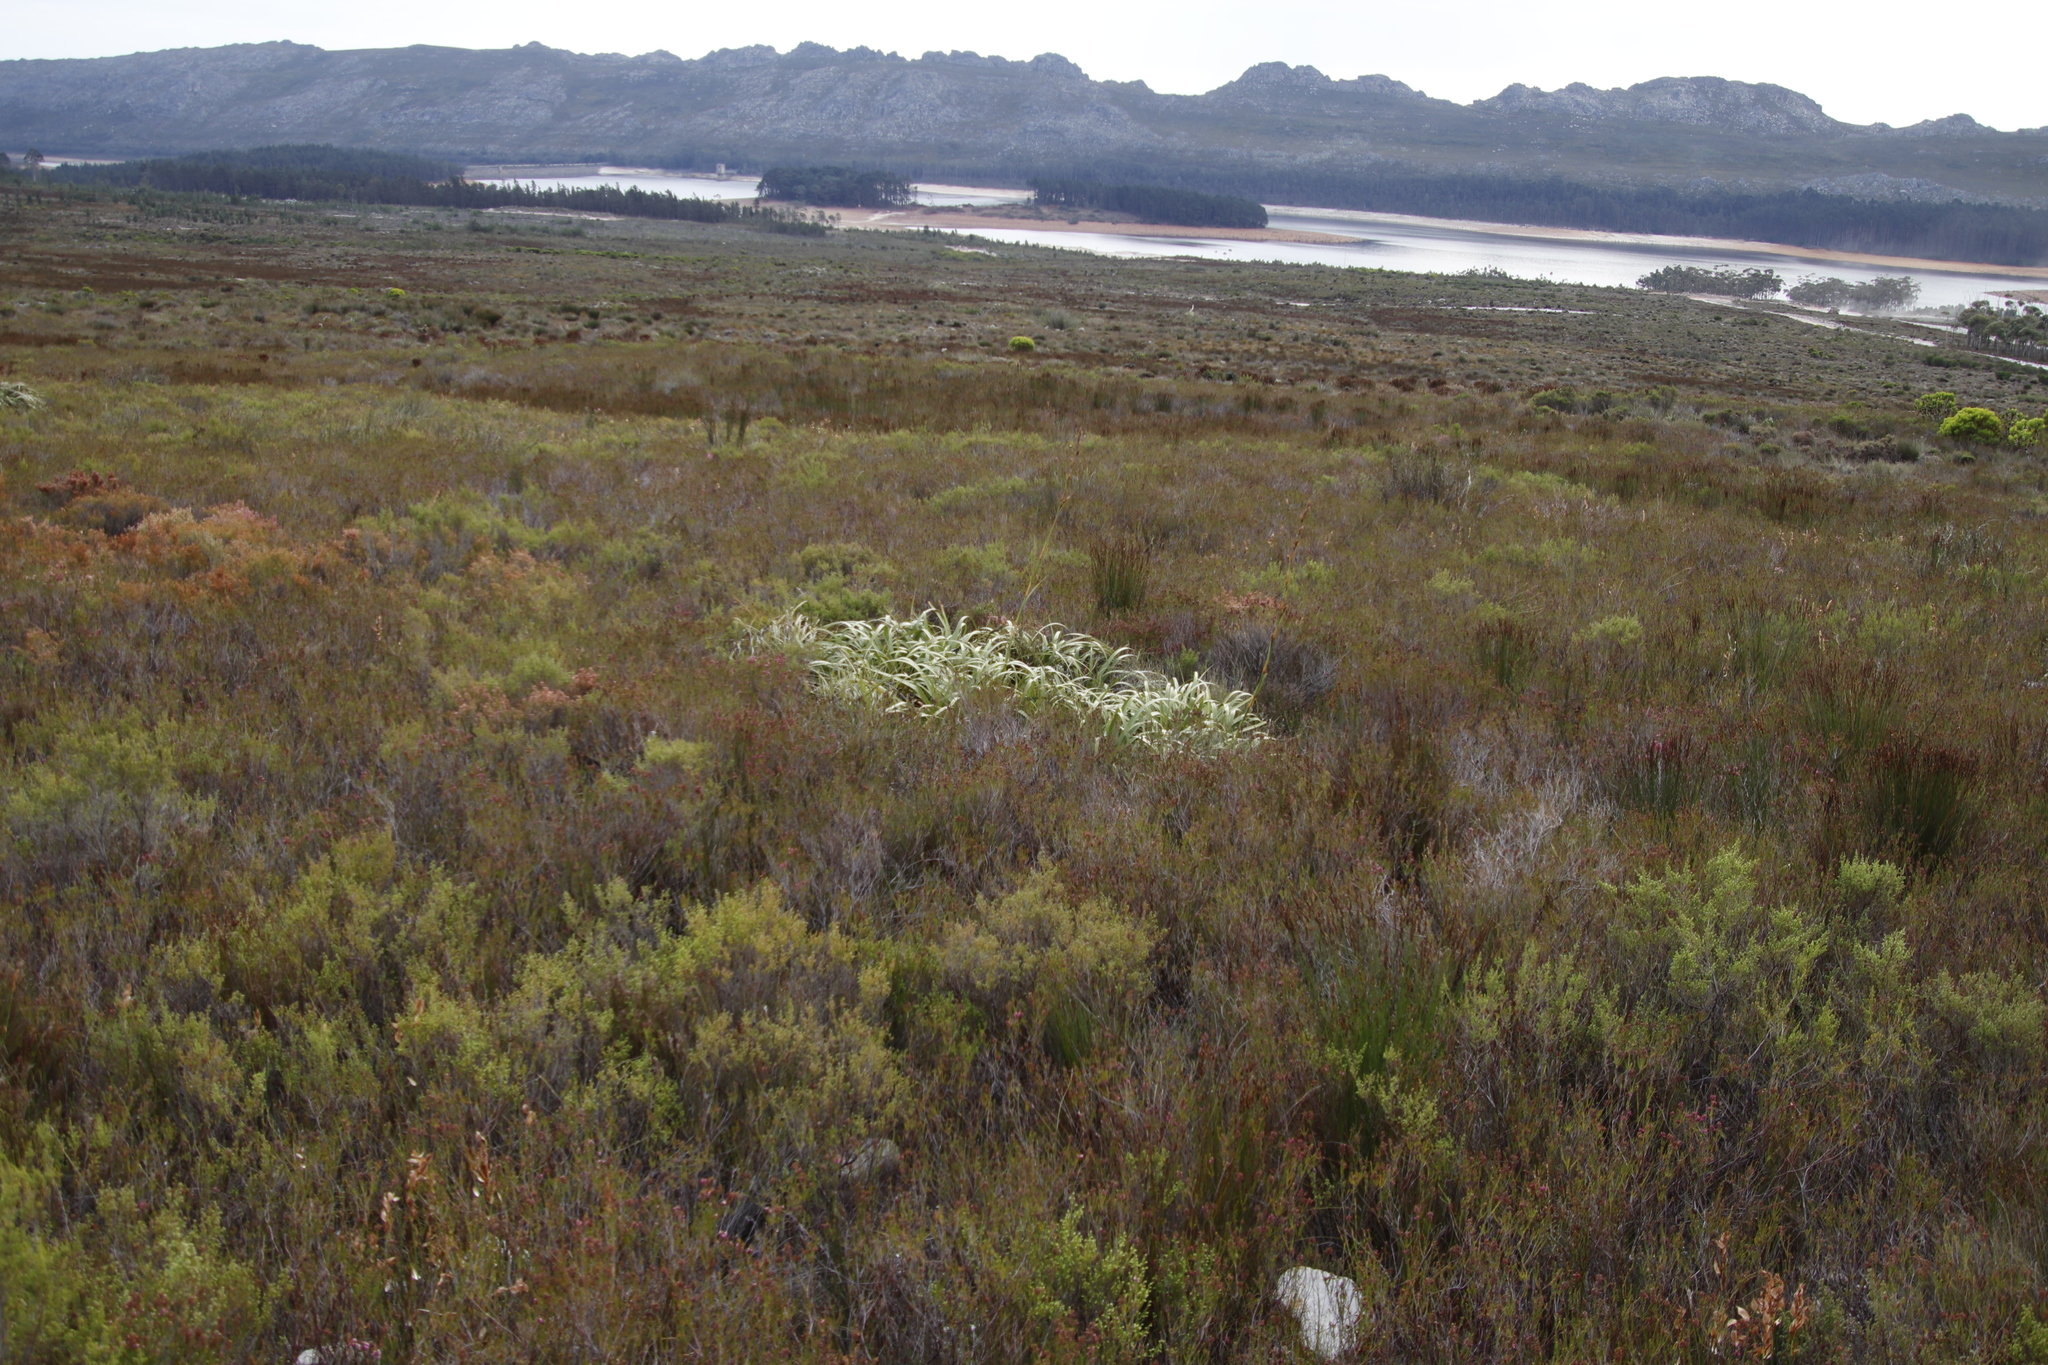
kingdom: Plantae
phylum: Tracheophyta
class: Liliopsida
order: Poales
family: Cyperaceae
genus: Tetraria
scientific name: Tetraria thermalis
